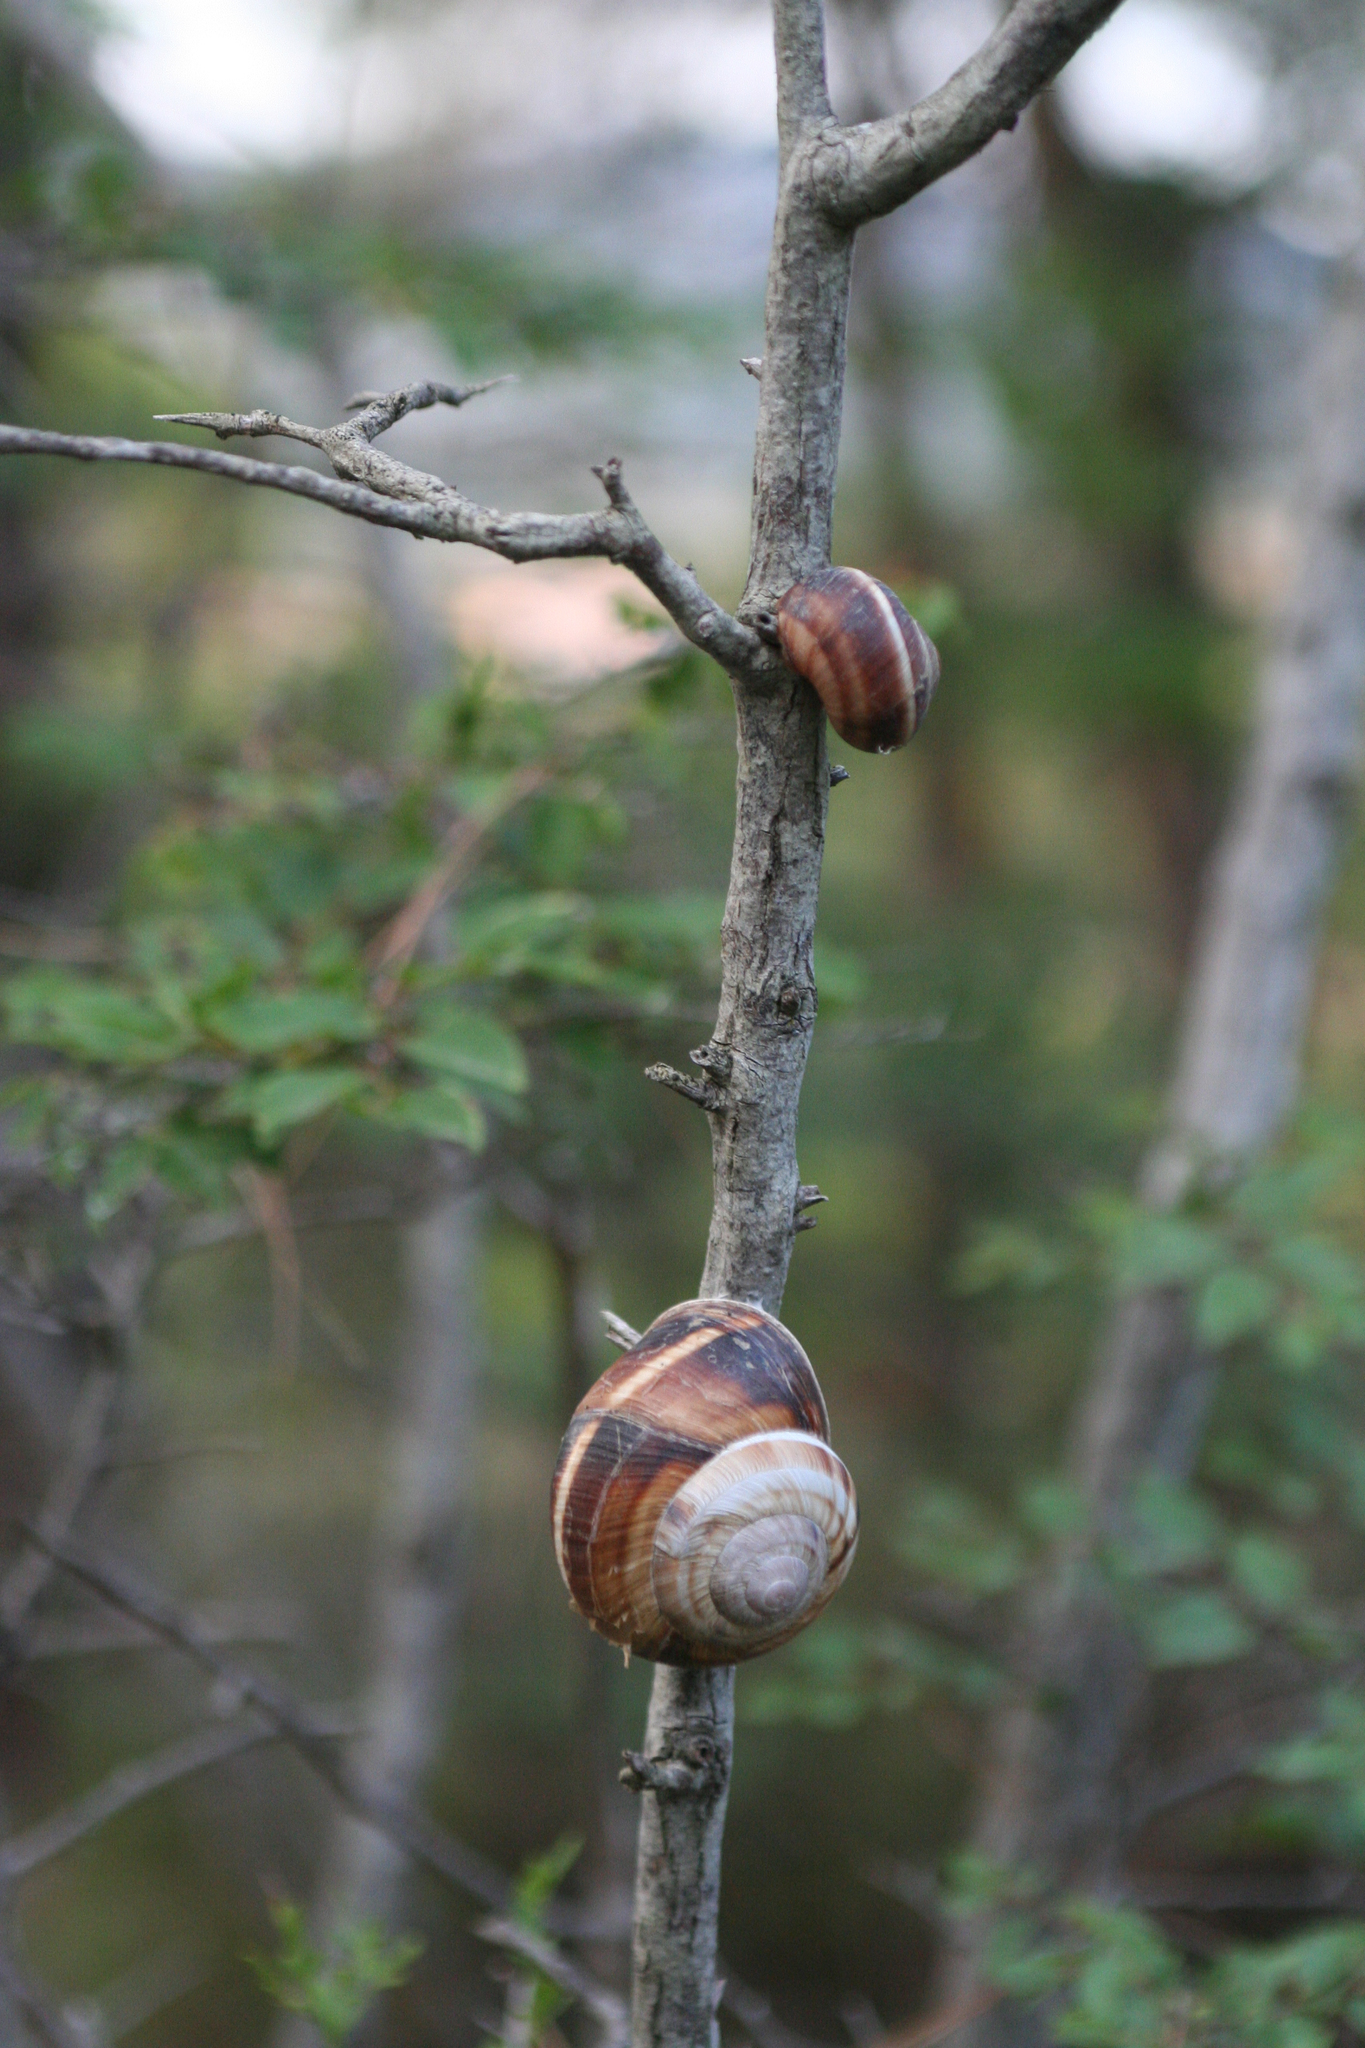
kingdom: Animalia
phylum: Mollusca
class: Gastropoda
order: Stylommatophora
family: Helicidae
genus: Helix
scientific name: Helix lucorum
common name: Turkish snail
